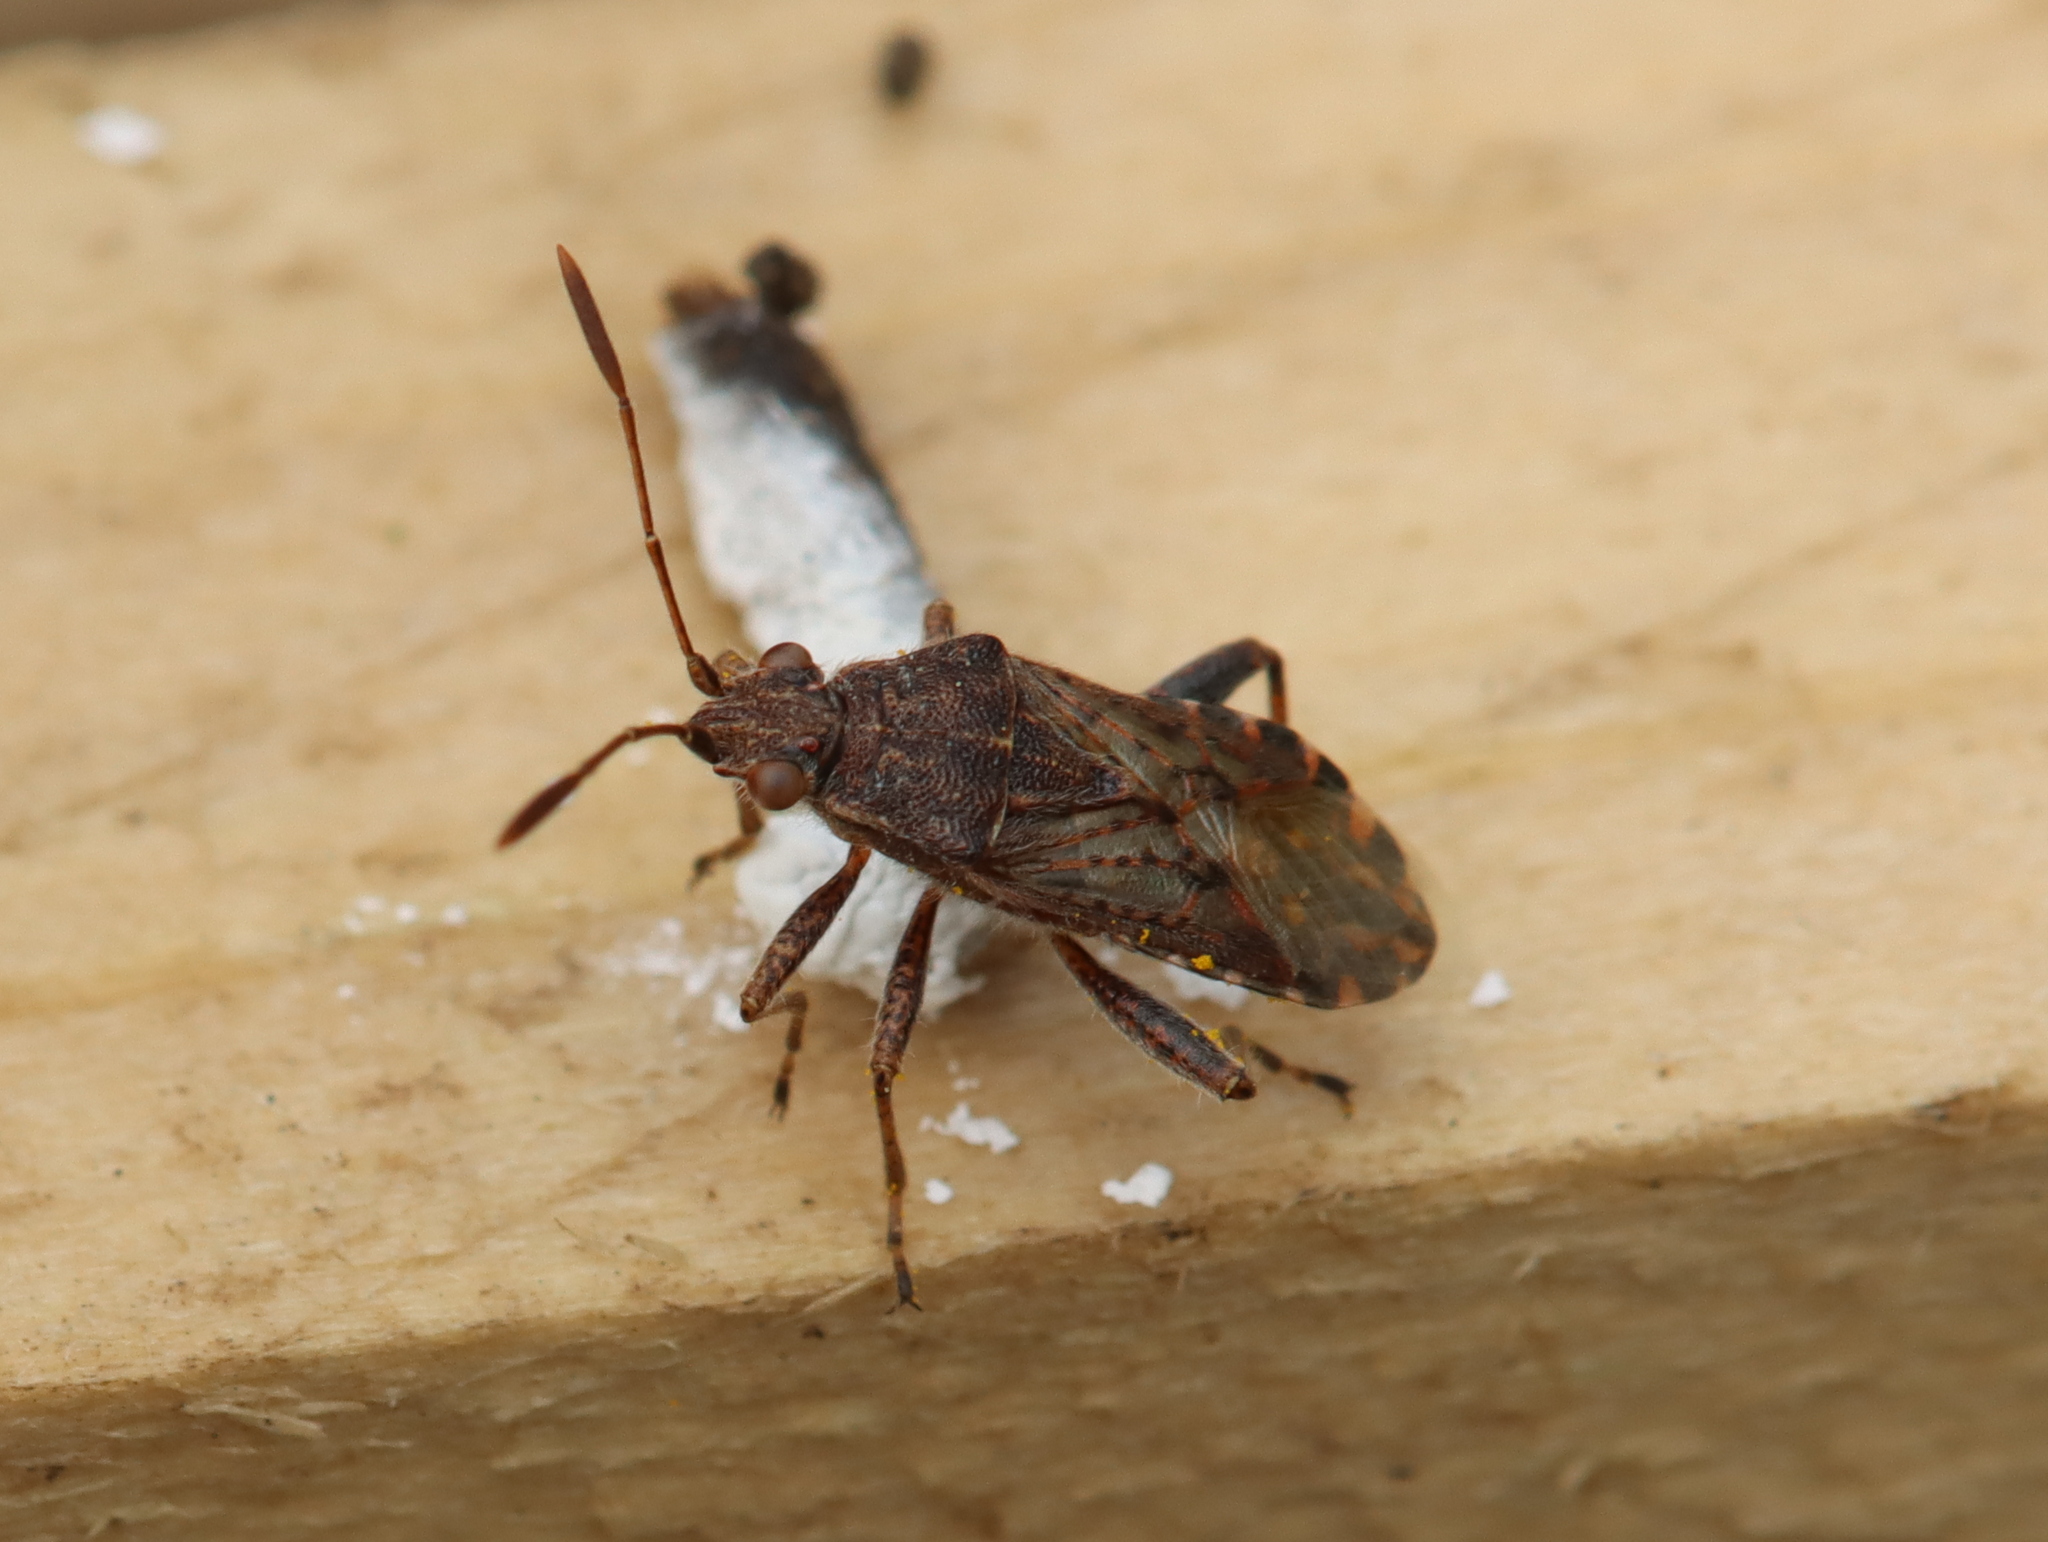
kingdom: Animalia
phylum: Arthropoda
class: Insecta
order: Hemiptera
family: Rhopalidae
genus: Stictopleurus
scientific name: Stictopleurus punctatonervosus
